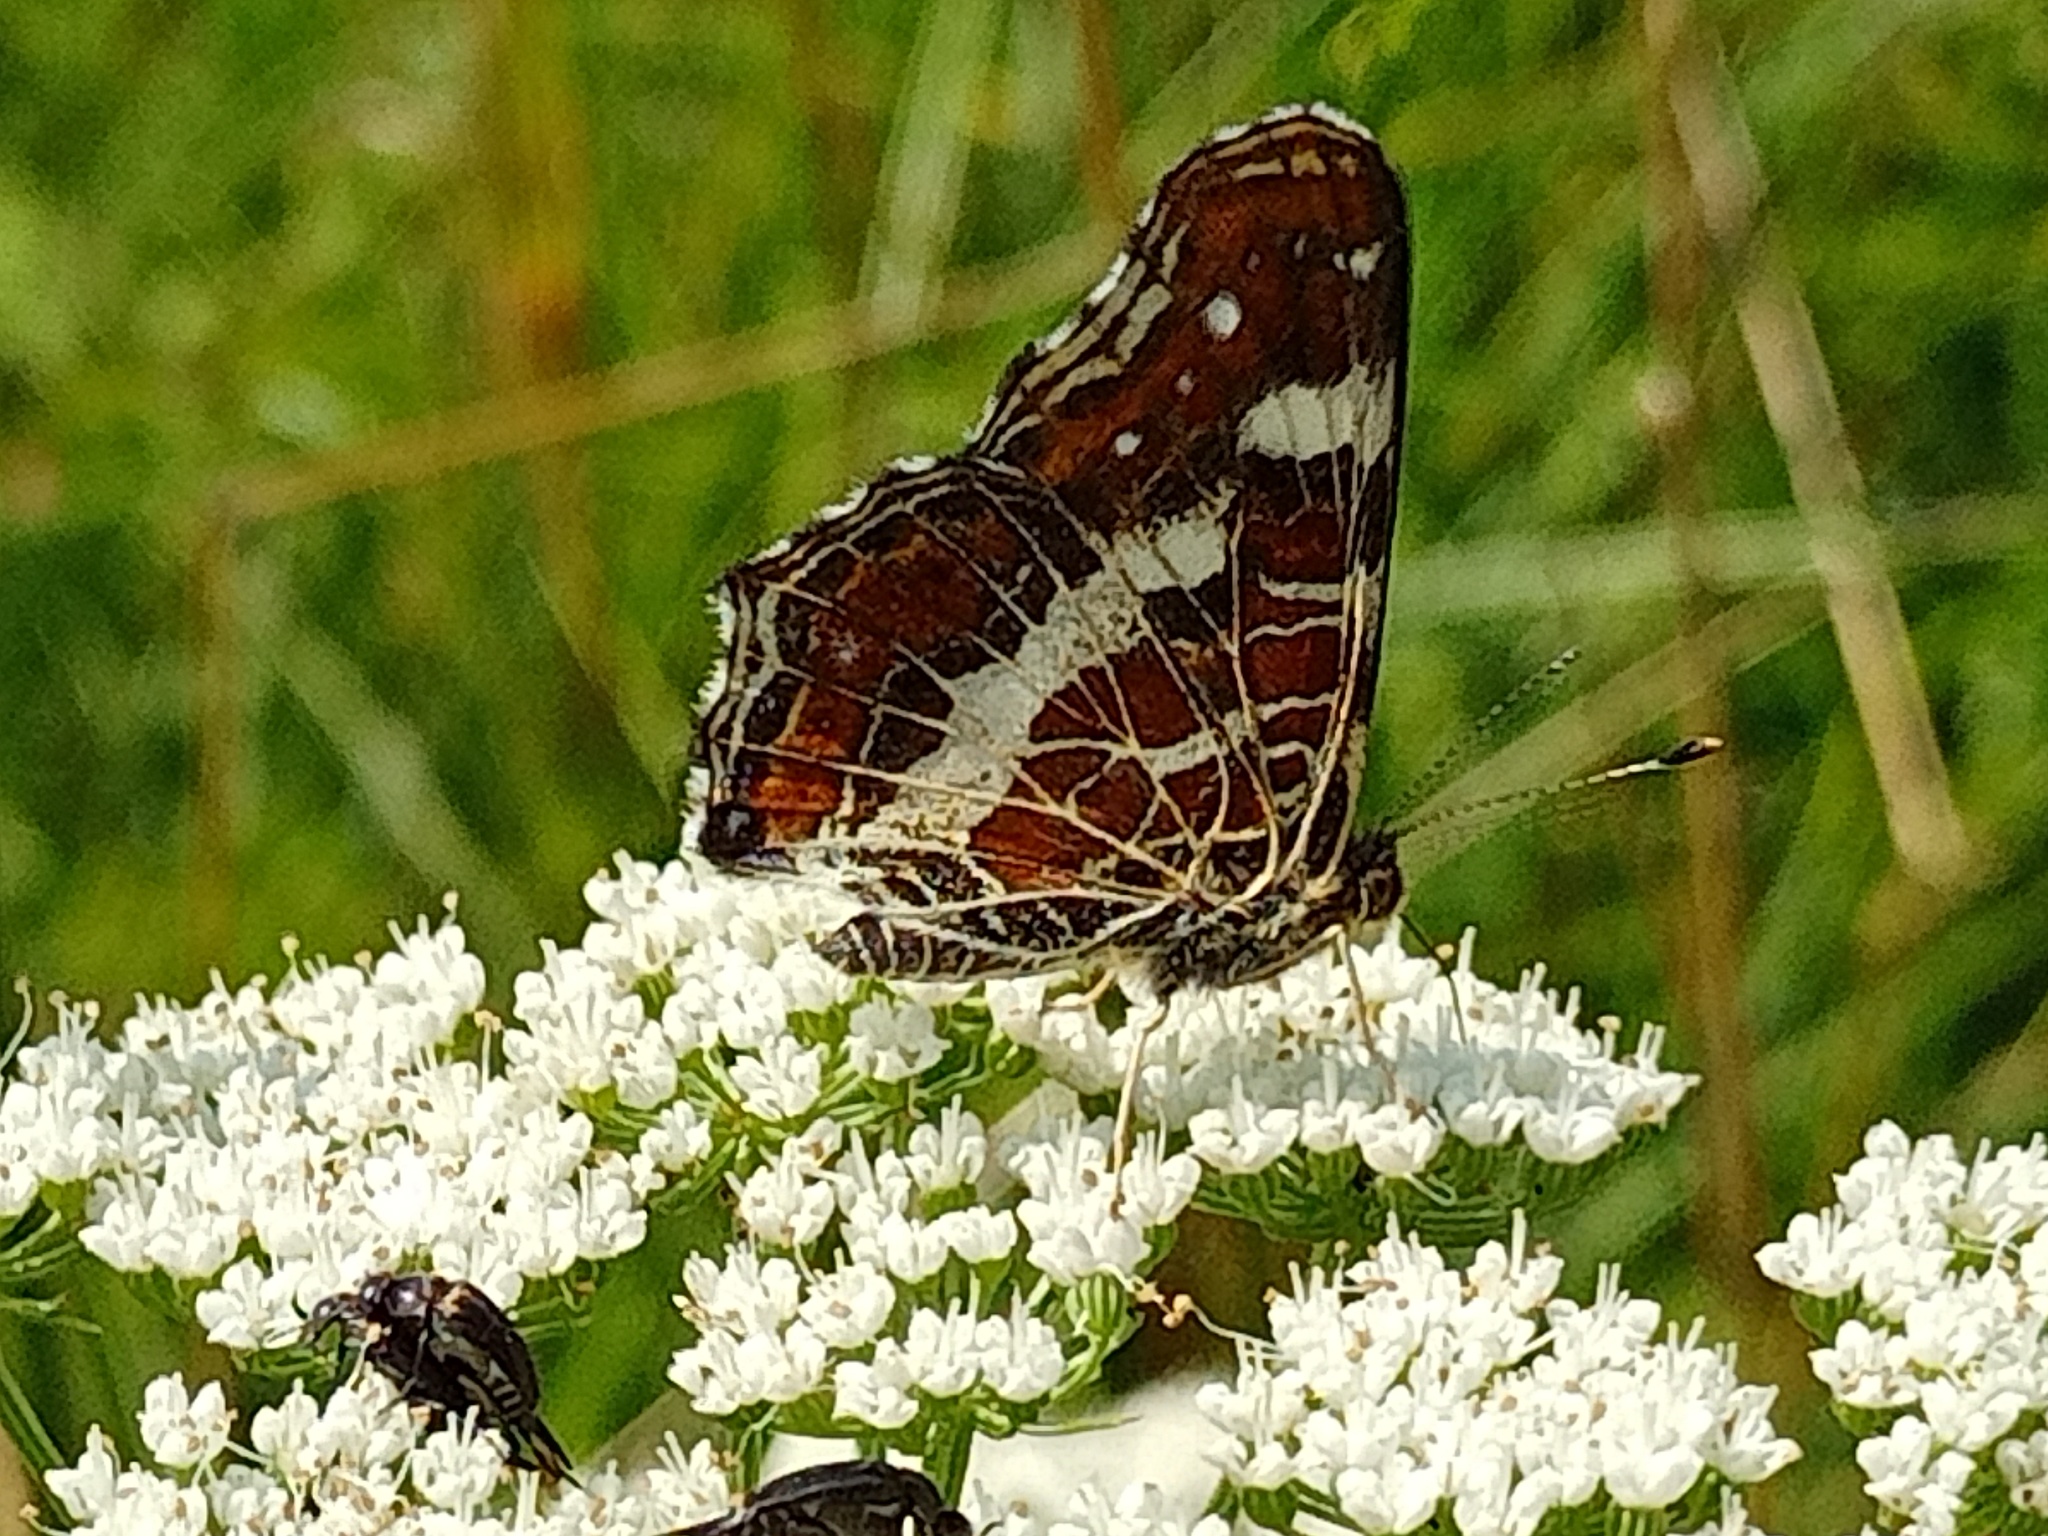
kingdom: Animalia
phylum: Arthropoda
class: Insecta
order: Lepidoptera
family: Nymphalidae
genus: Araschnia
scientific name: Araschnia levana
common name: Map butterfly
